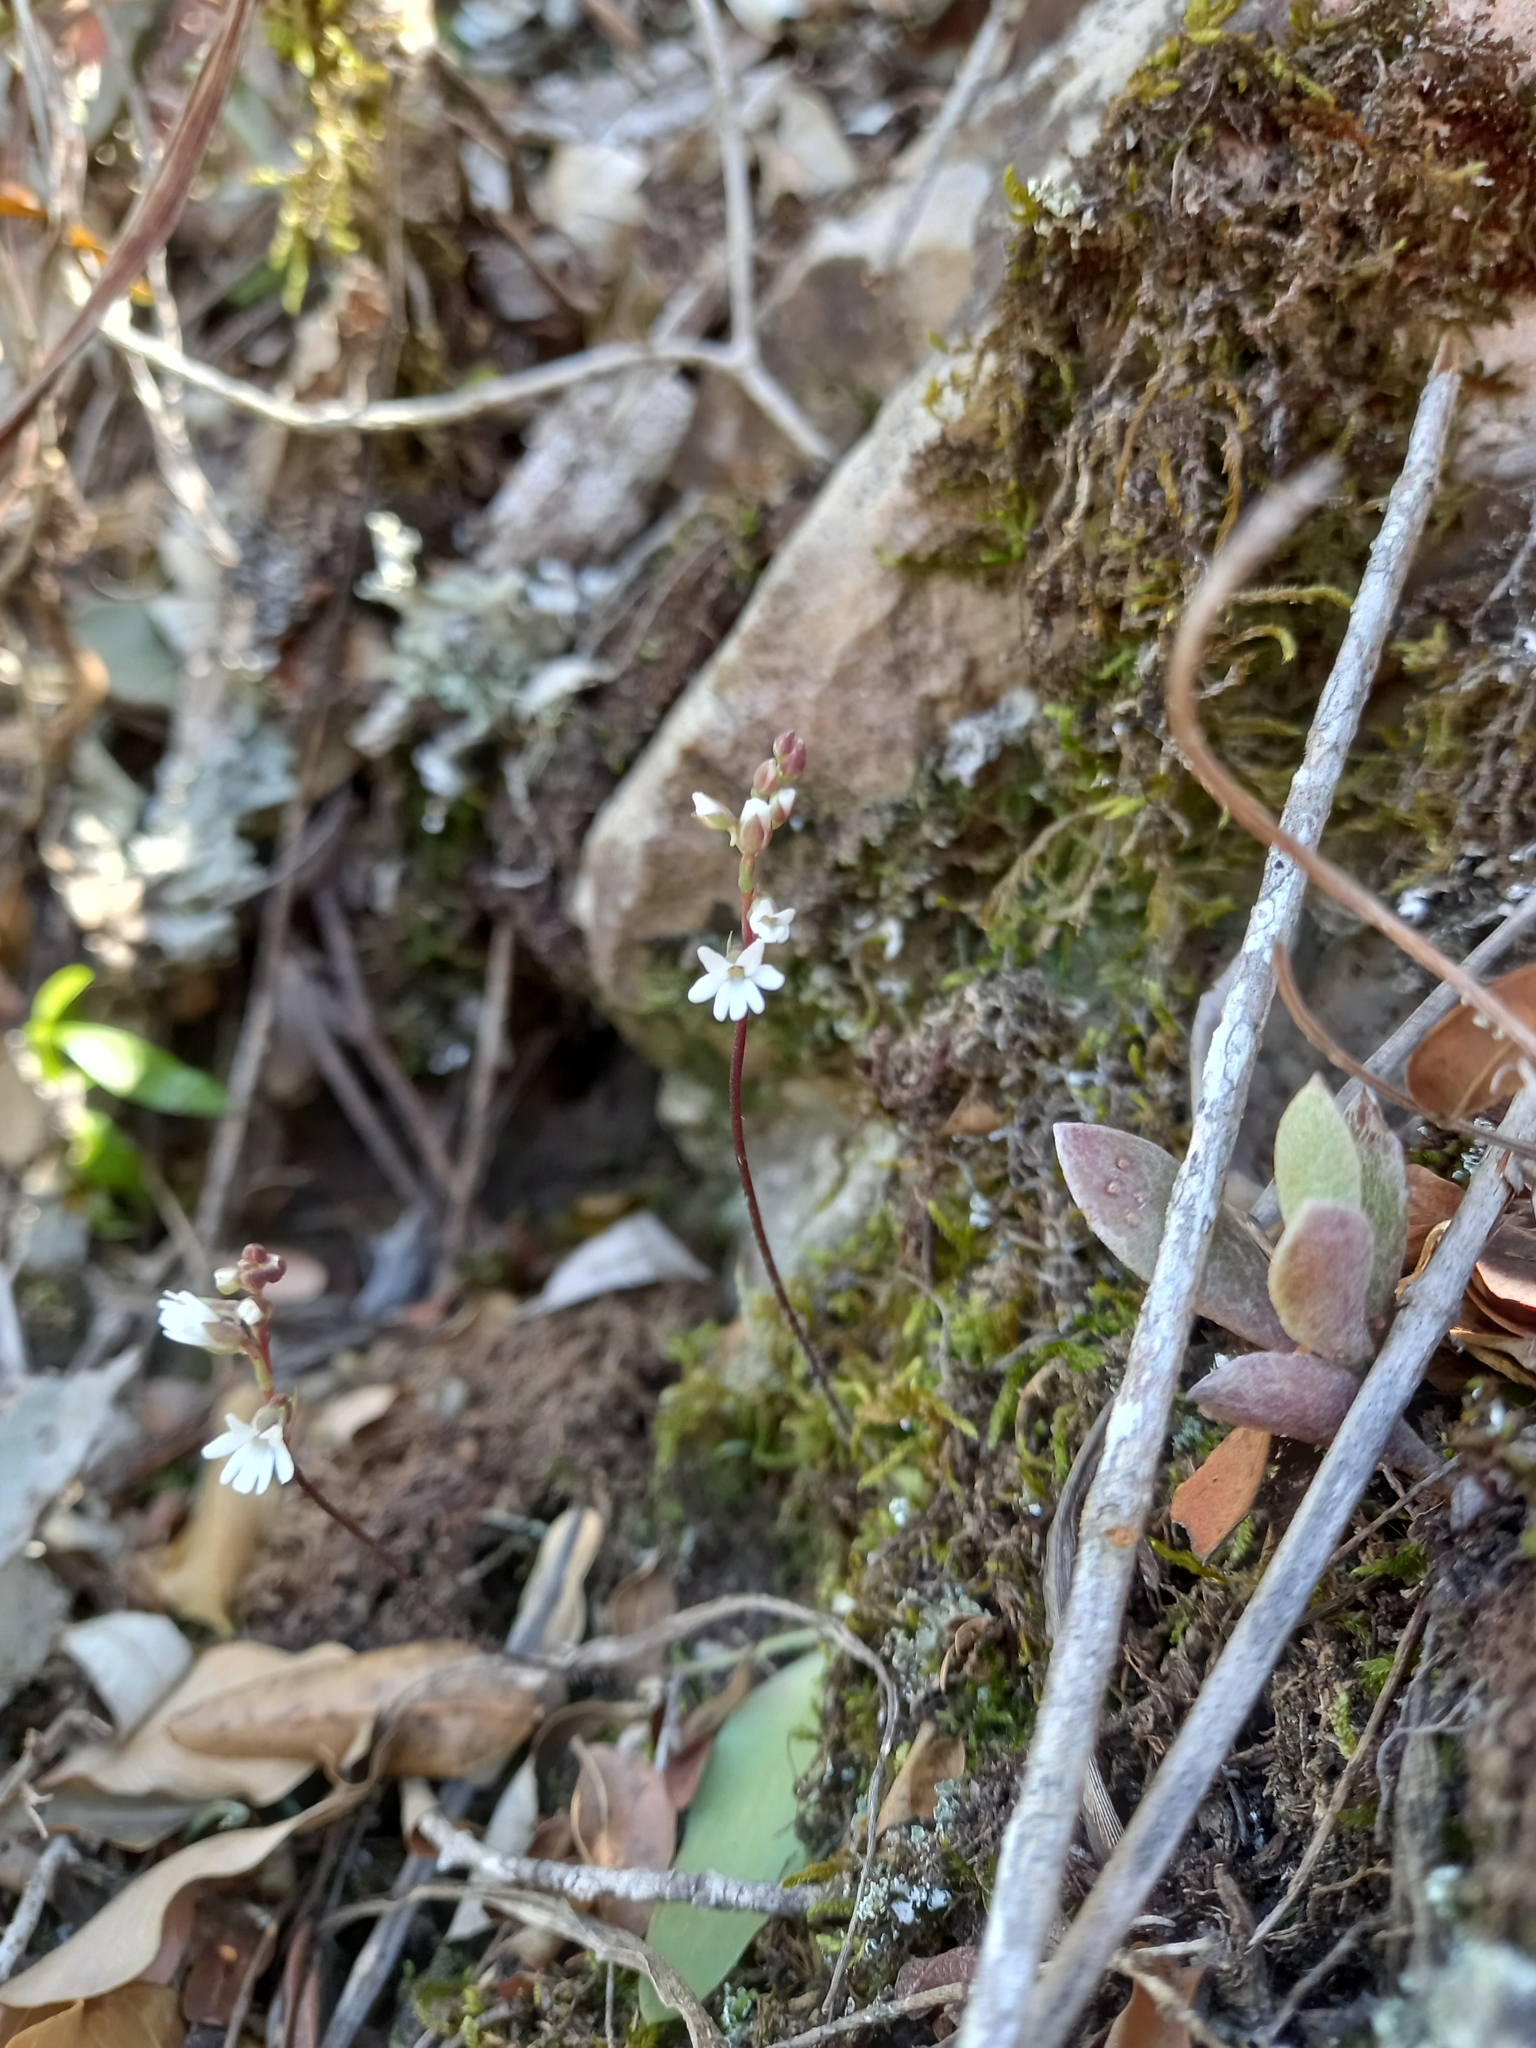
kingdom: Plantae
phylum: Tracheophyta
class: Liliopsida
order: Asparagales
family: Orchidaceae
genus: Holothrix
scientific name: Holothrix parviflora
